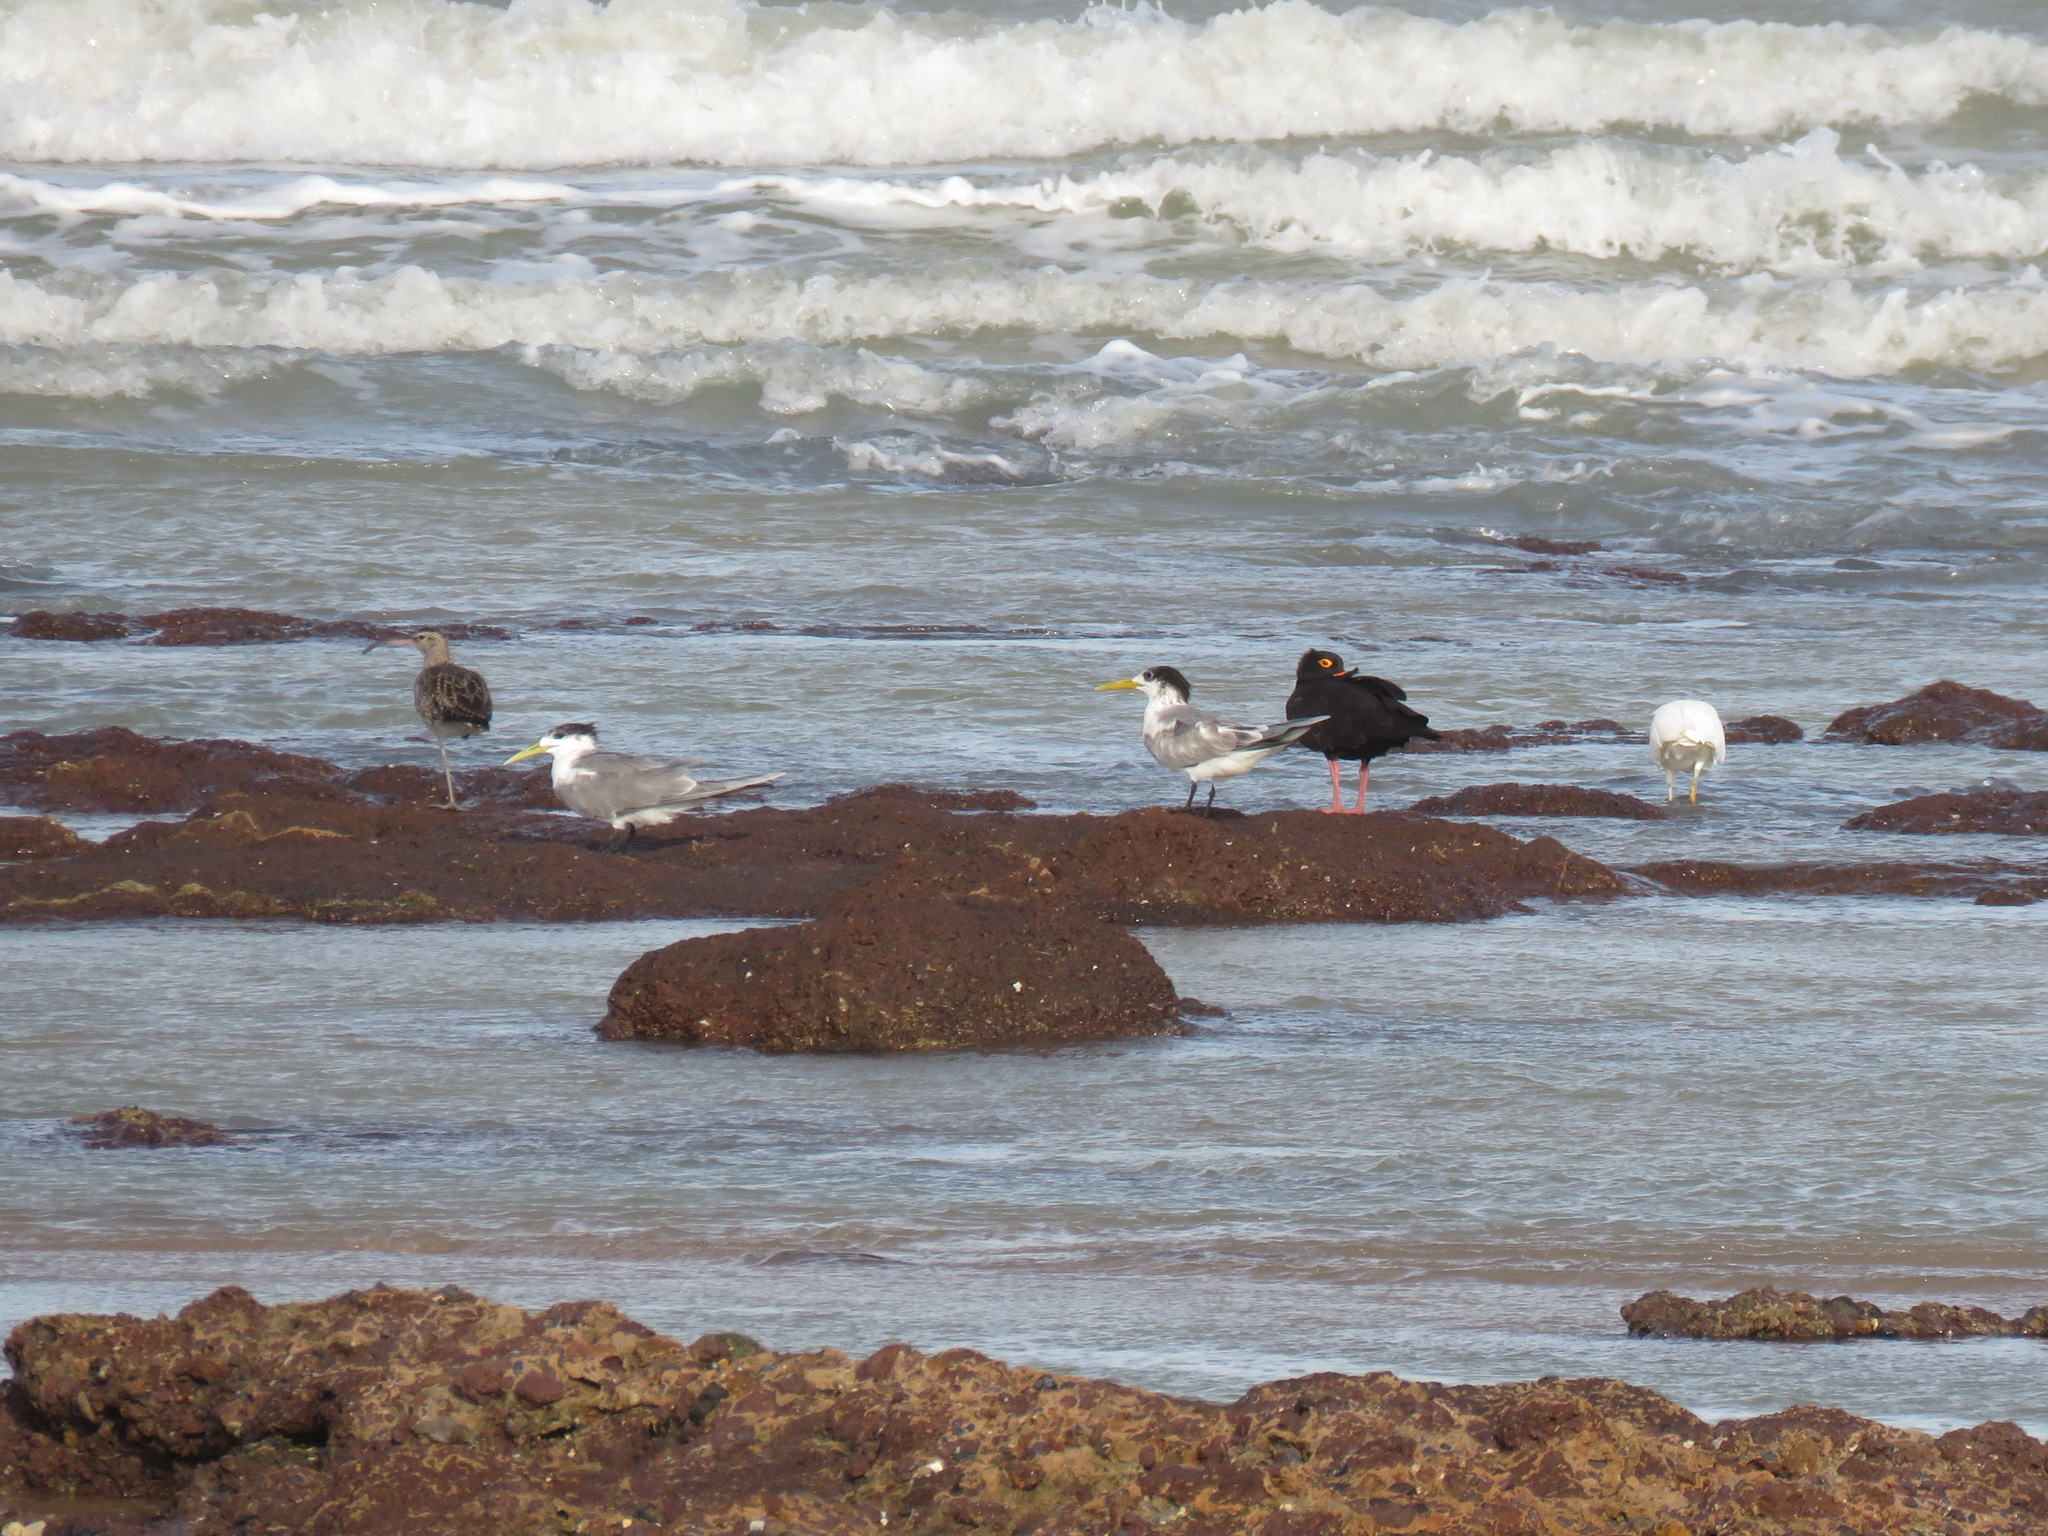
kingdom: Animalia
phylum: Chordata
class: Aves
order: Charadriiformes
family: Laridae
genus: Thalasseus
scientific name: Thalasseus bergii
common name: Greater crested tern
